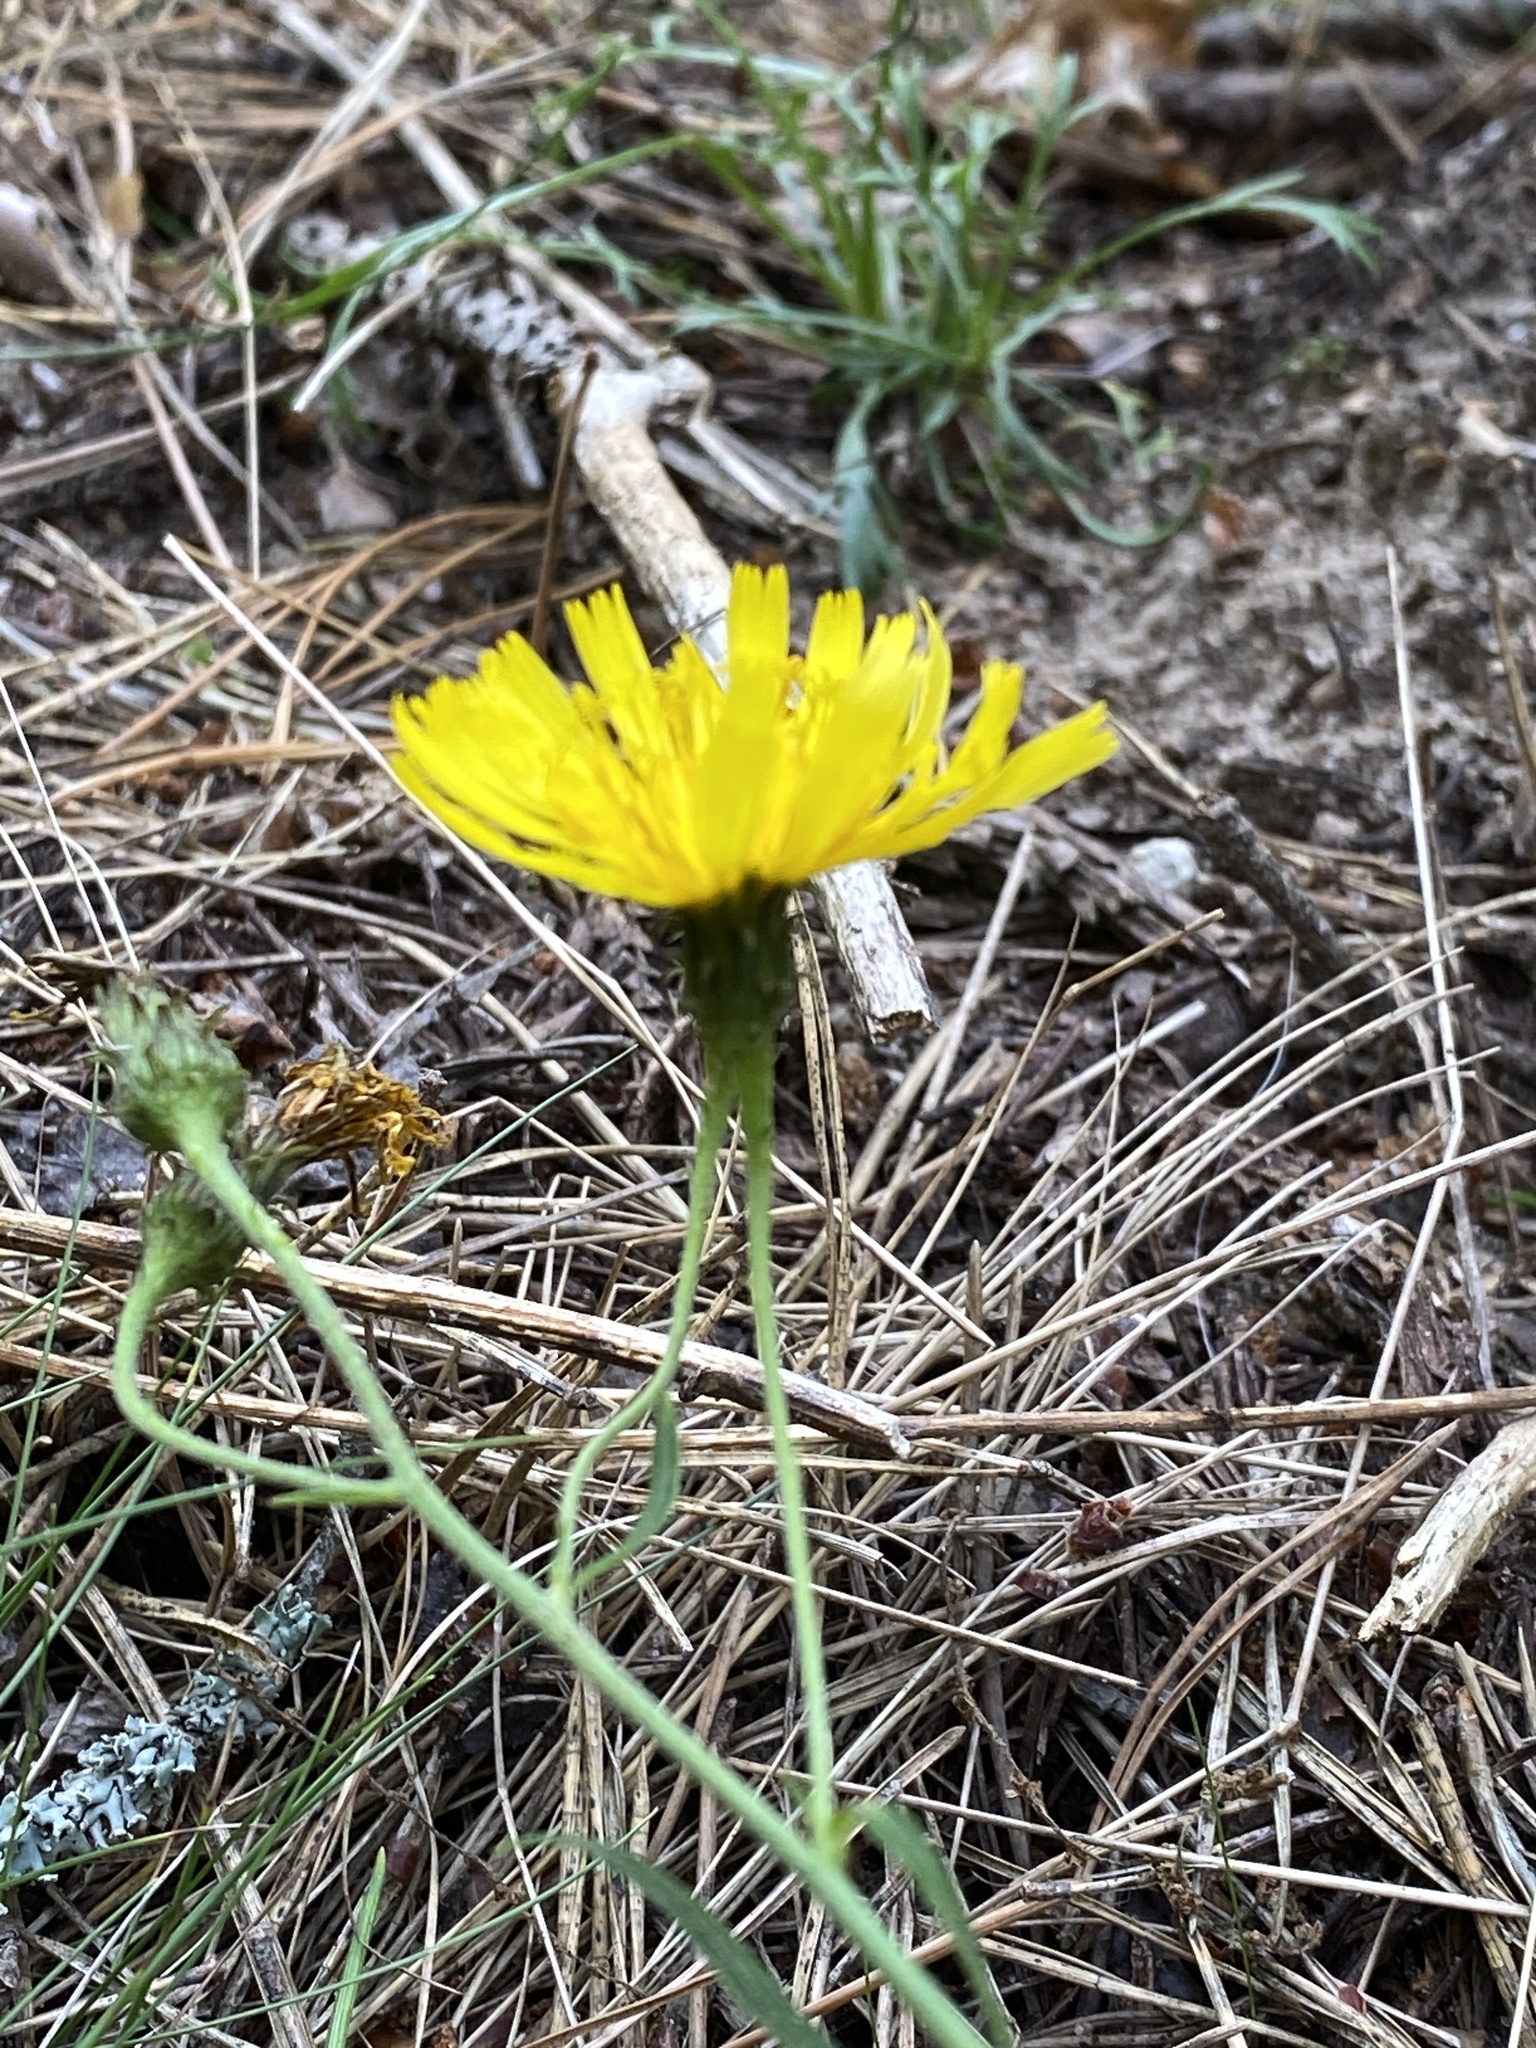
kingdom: Plantae
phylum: Tracheophyta
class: Magnoliopsida
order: Asterales
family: Asteraceae
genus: Hieracium
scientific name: Hieracium umbellatum
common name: Northern hawkweed
